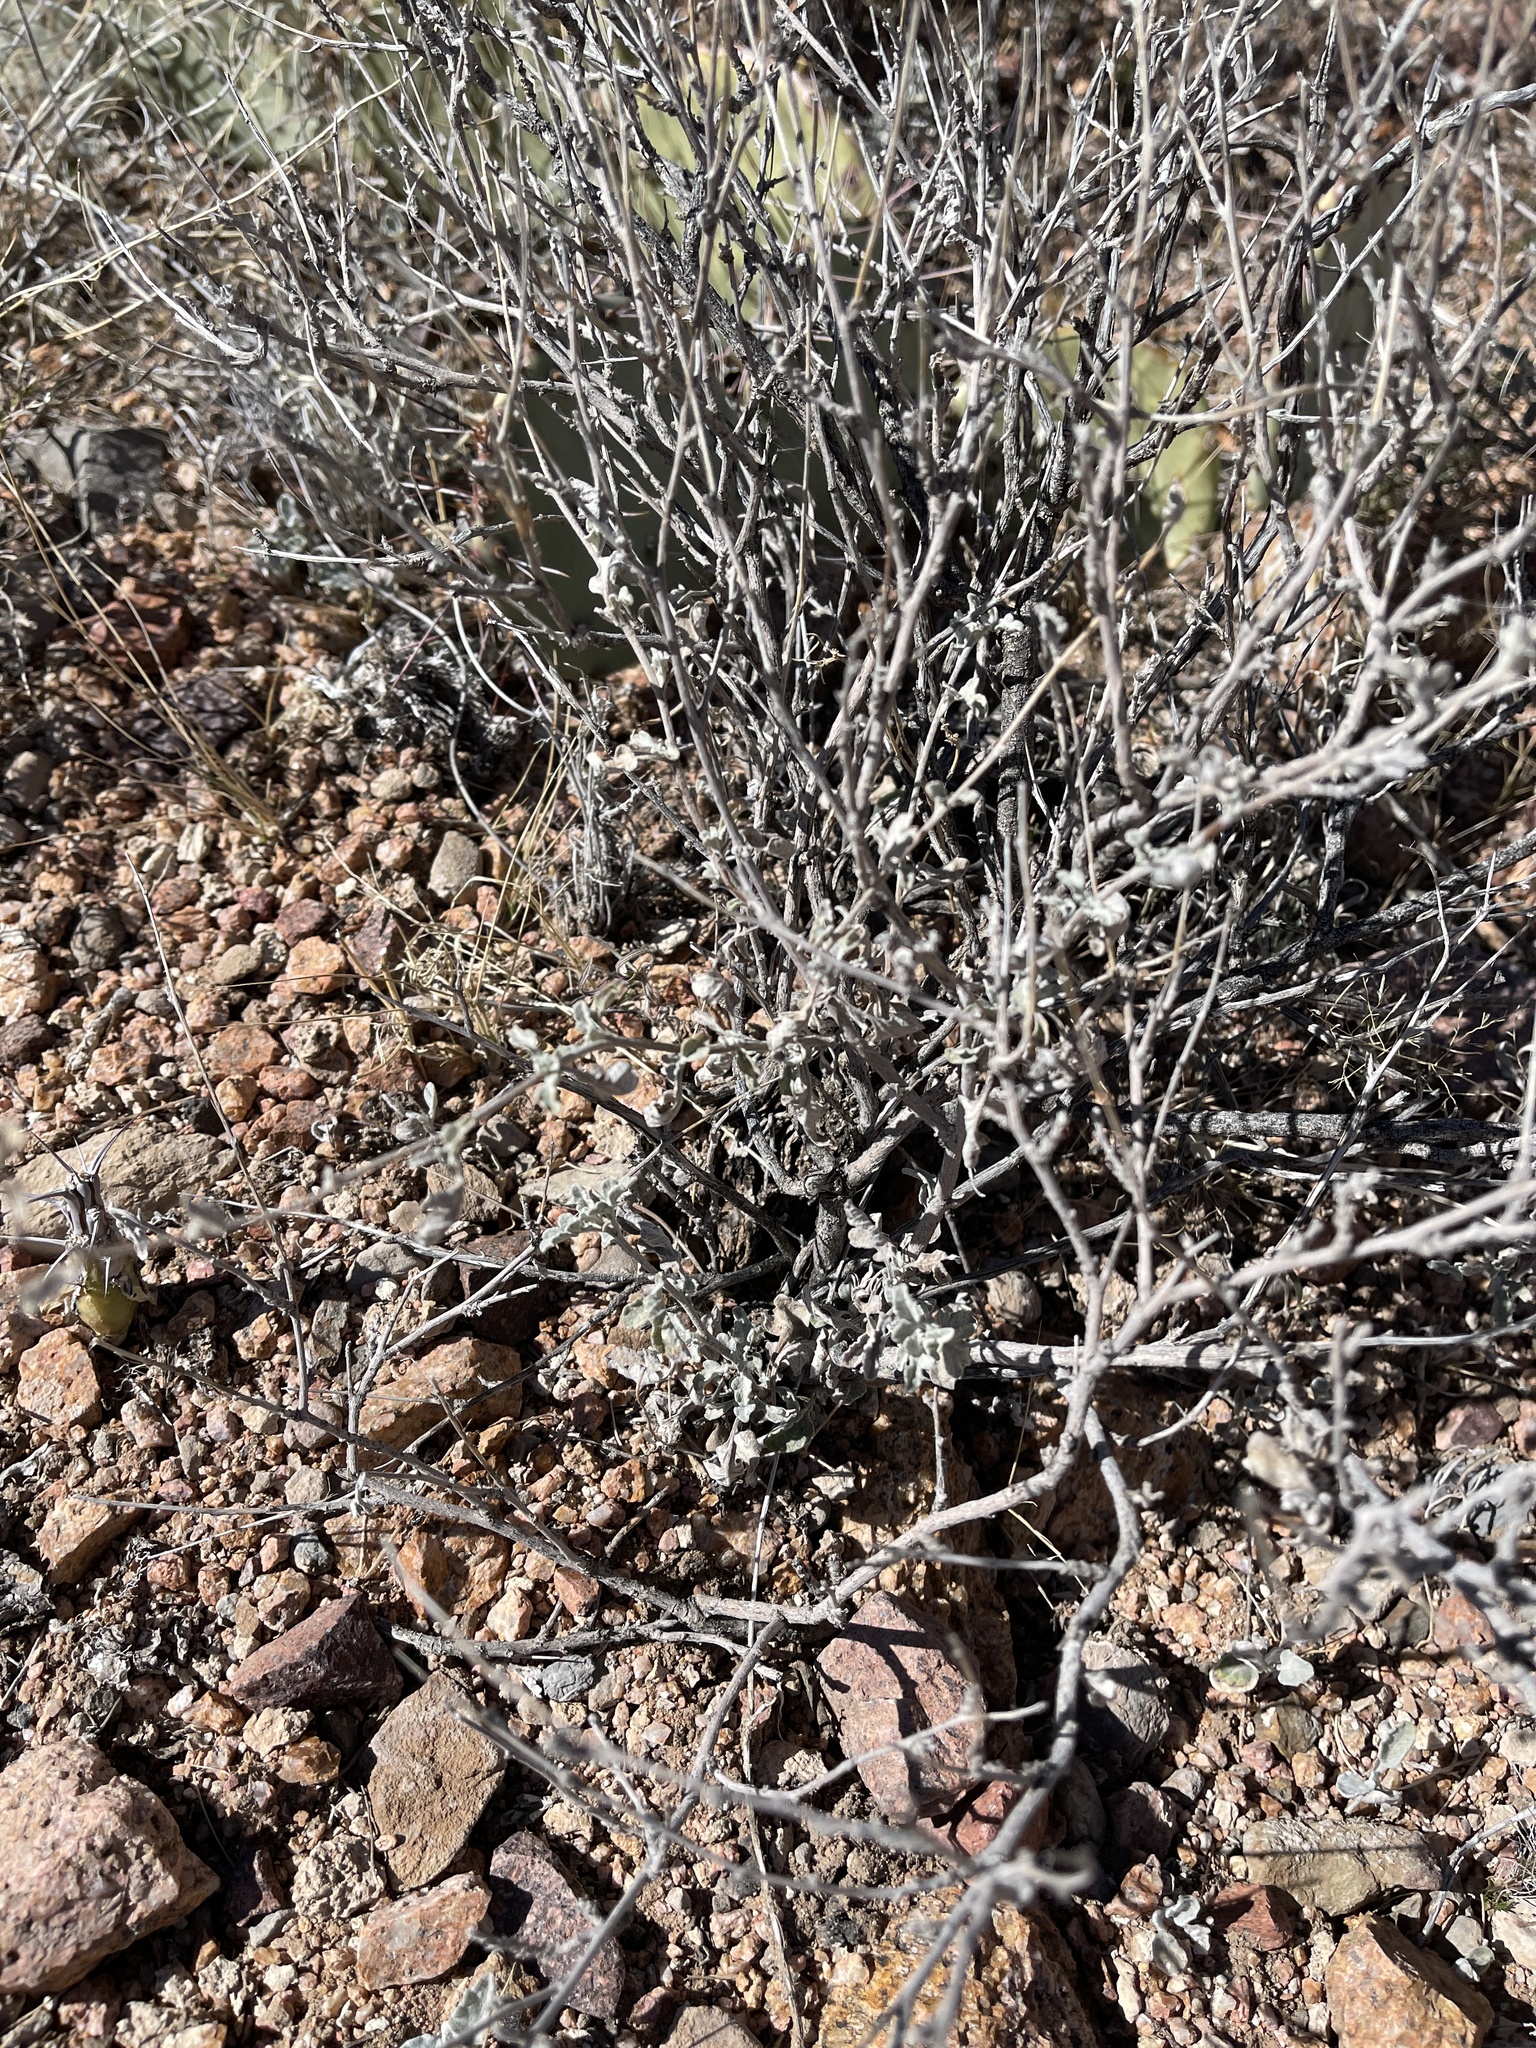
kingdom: Plantae
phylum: Tracheophyta
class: Magnoliopsida
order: Asterales
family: Asteraceae
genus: Parthenium
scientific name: Parthenium incanum
